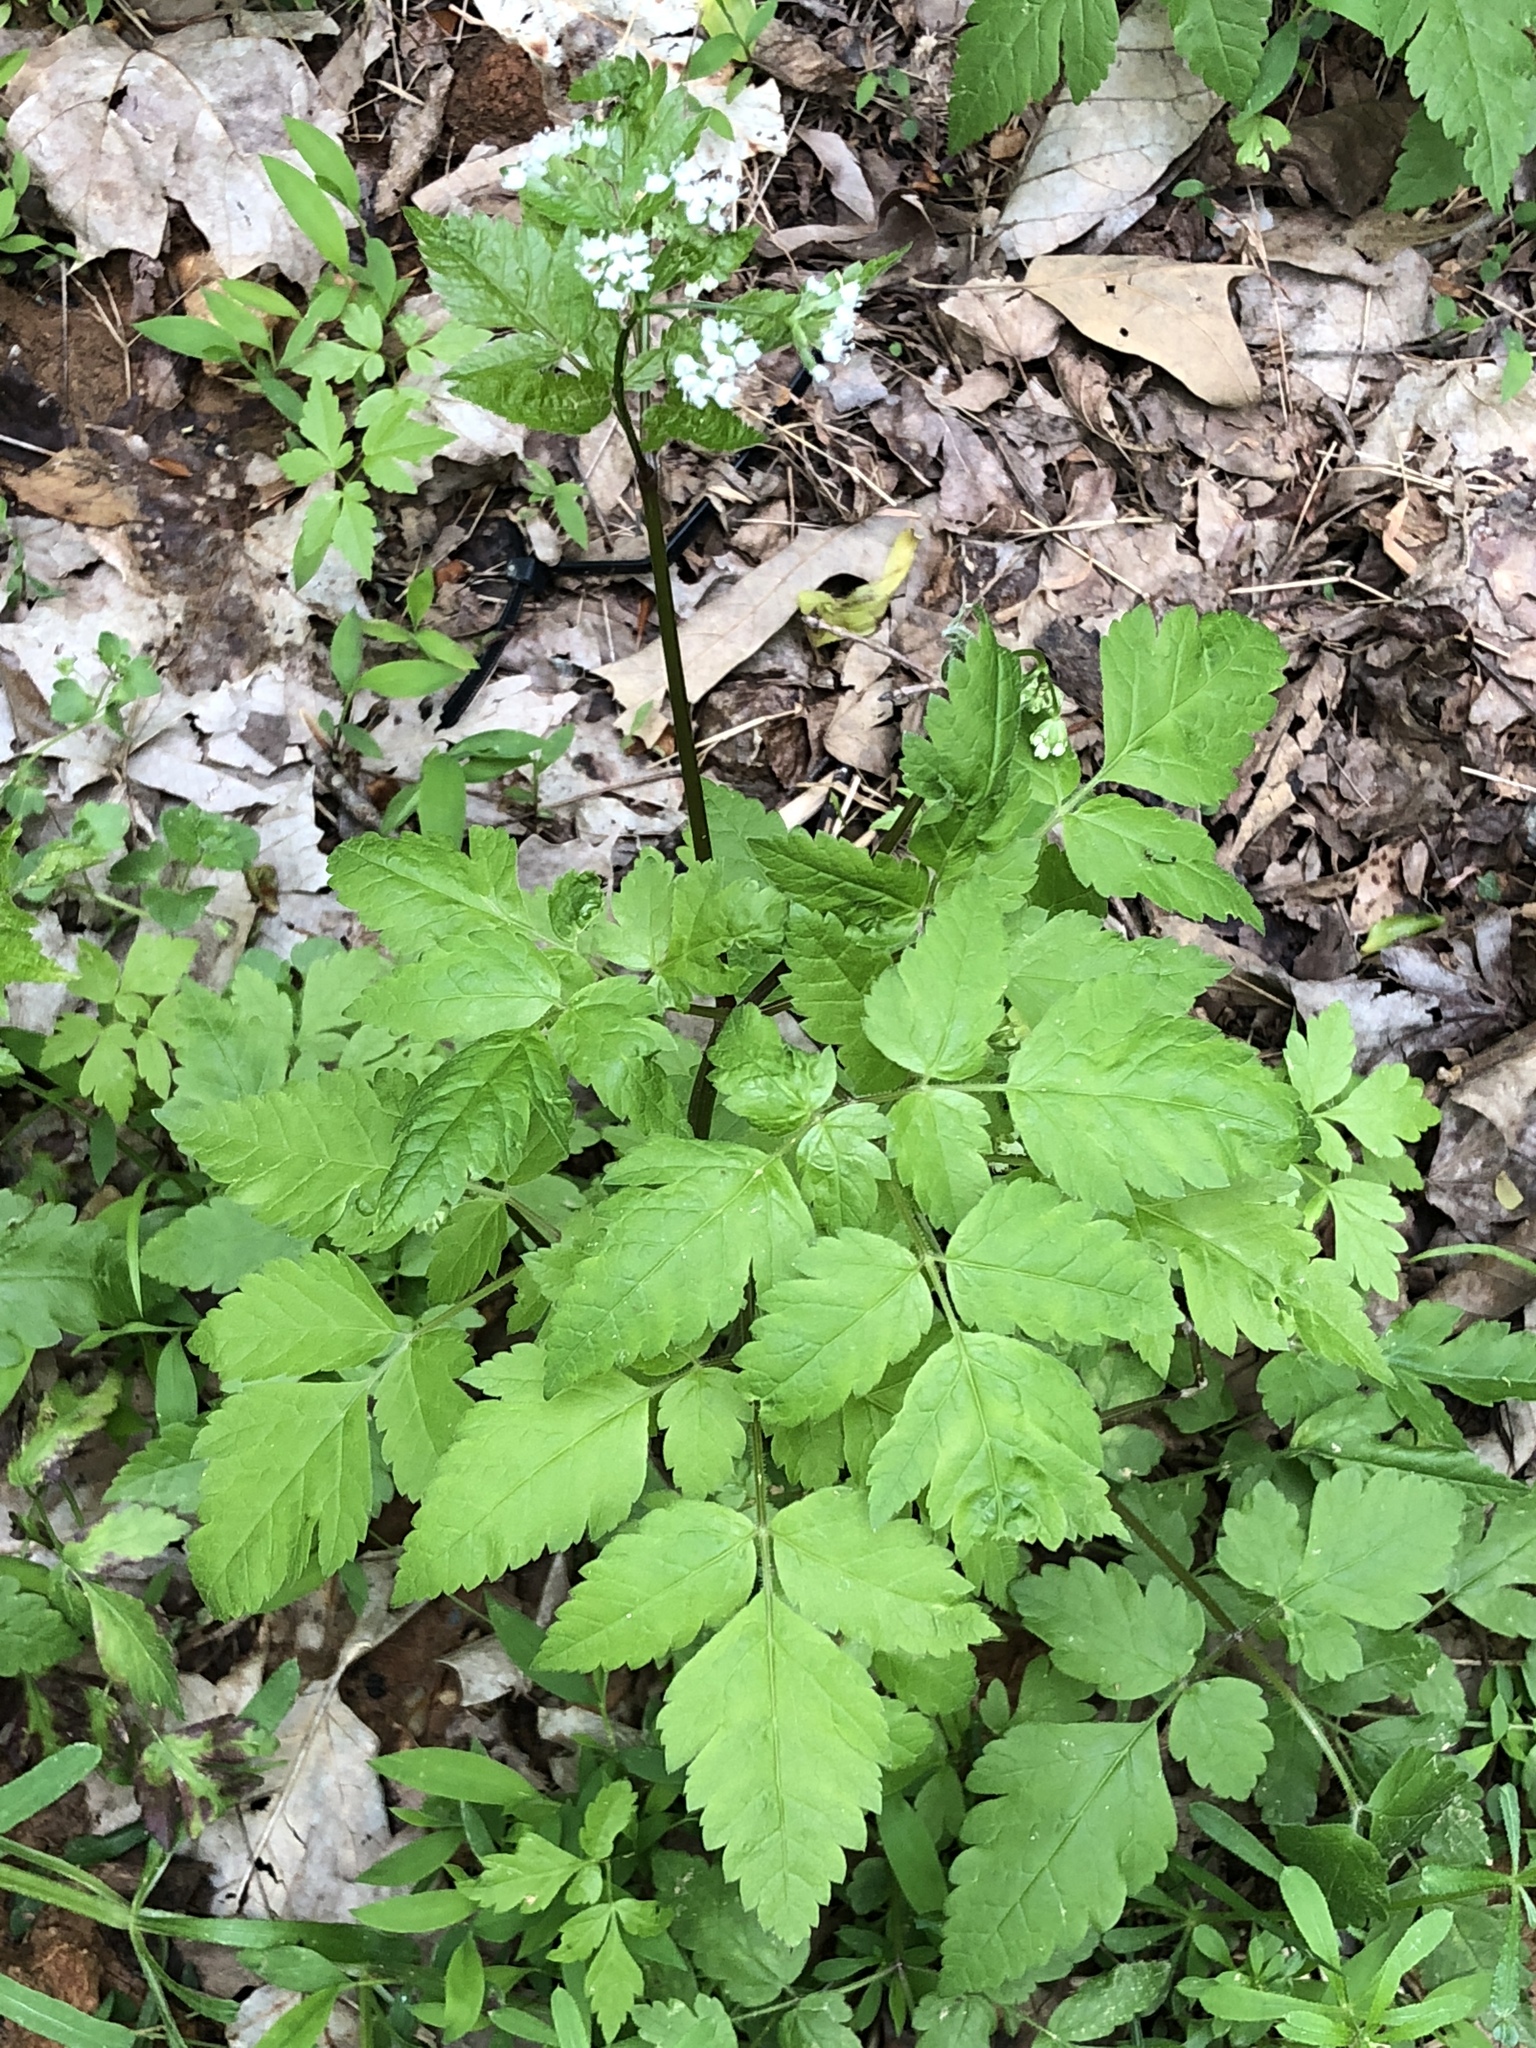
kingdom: Plantae
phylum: Tracheophyta
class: Magnoliopsida
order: Apiales
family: Apiaceae
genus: Osmorhiza
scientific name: Osmorhiza longistylis
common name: Smooth sweet cicely
